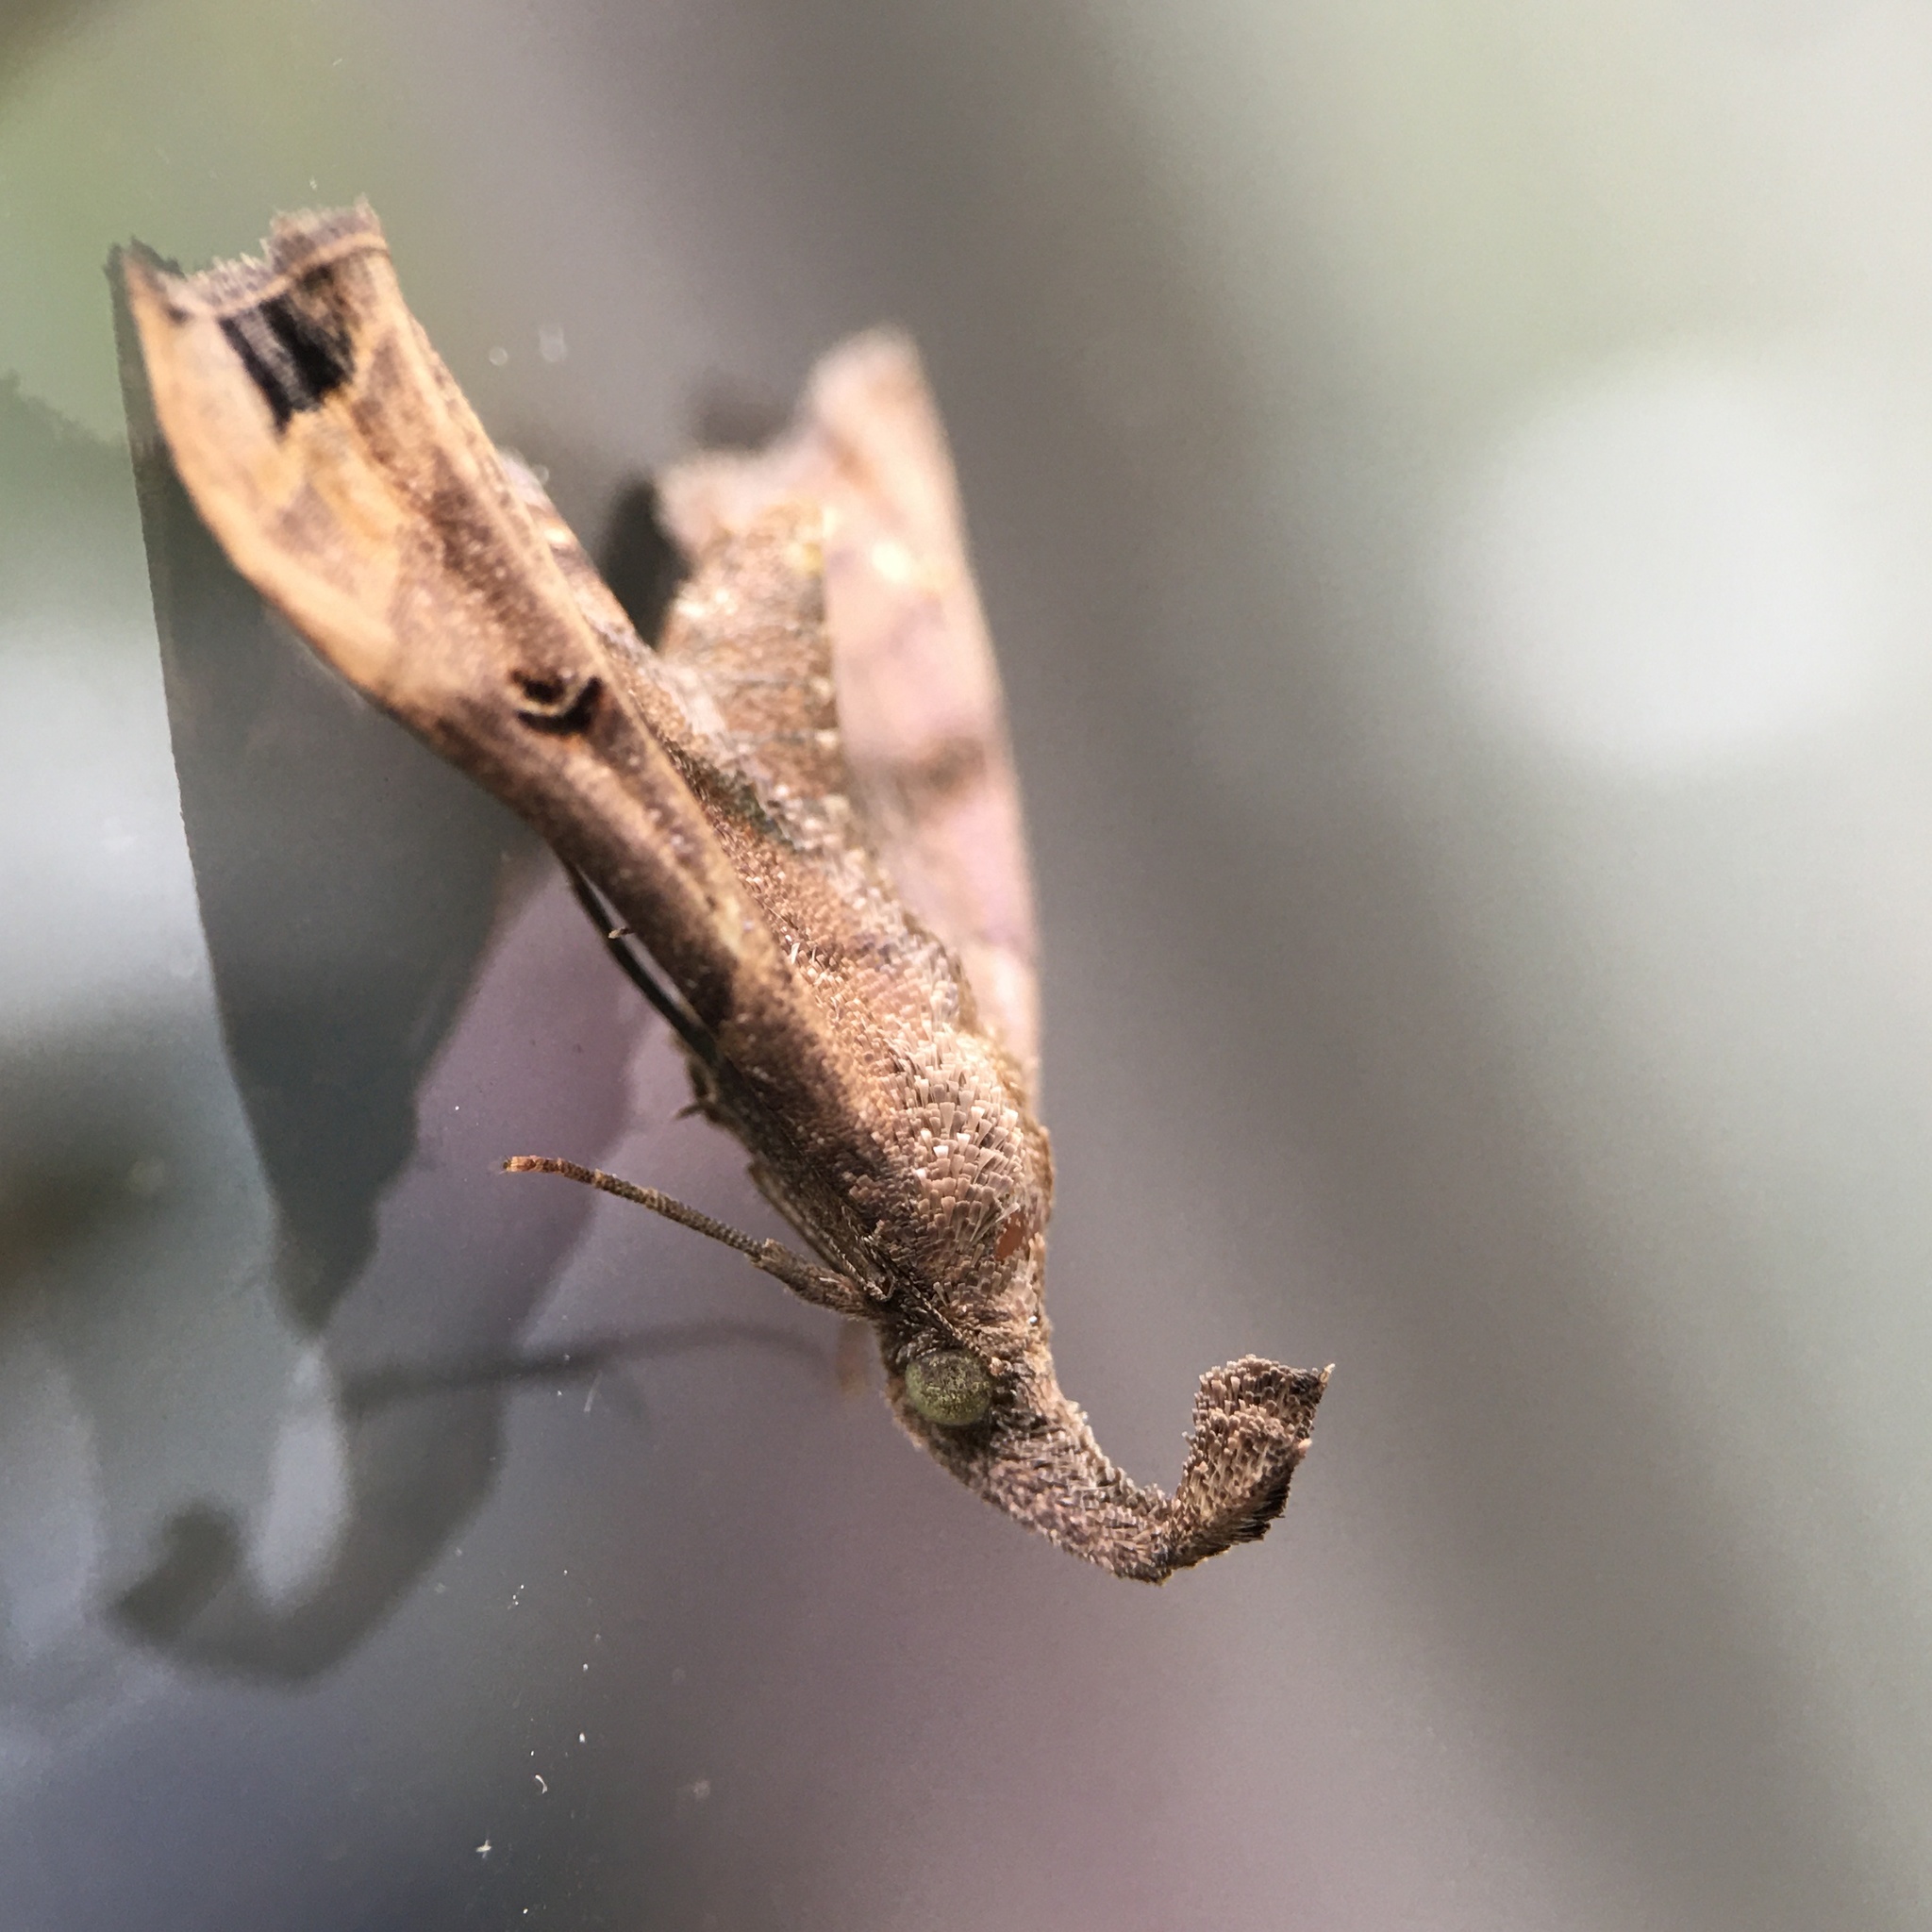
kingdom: Animalia
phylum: Arthropoda
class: Insecta
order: Lepidoptera
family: Erebidae
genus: Palthis
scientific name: Palthis asopialis
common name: Faint-spotted palthis moth
